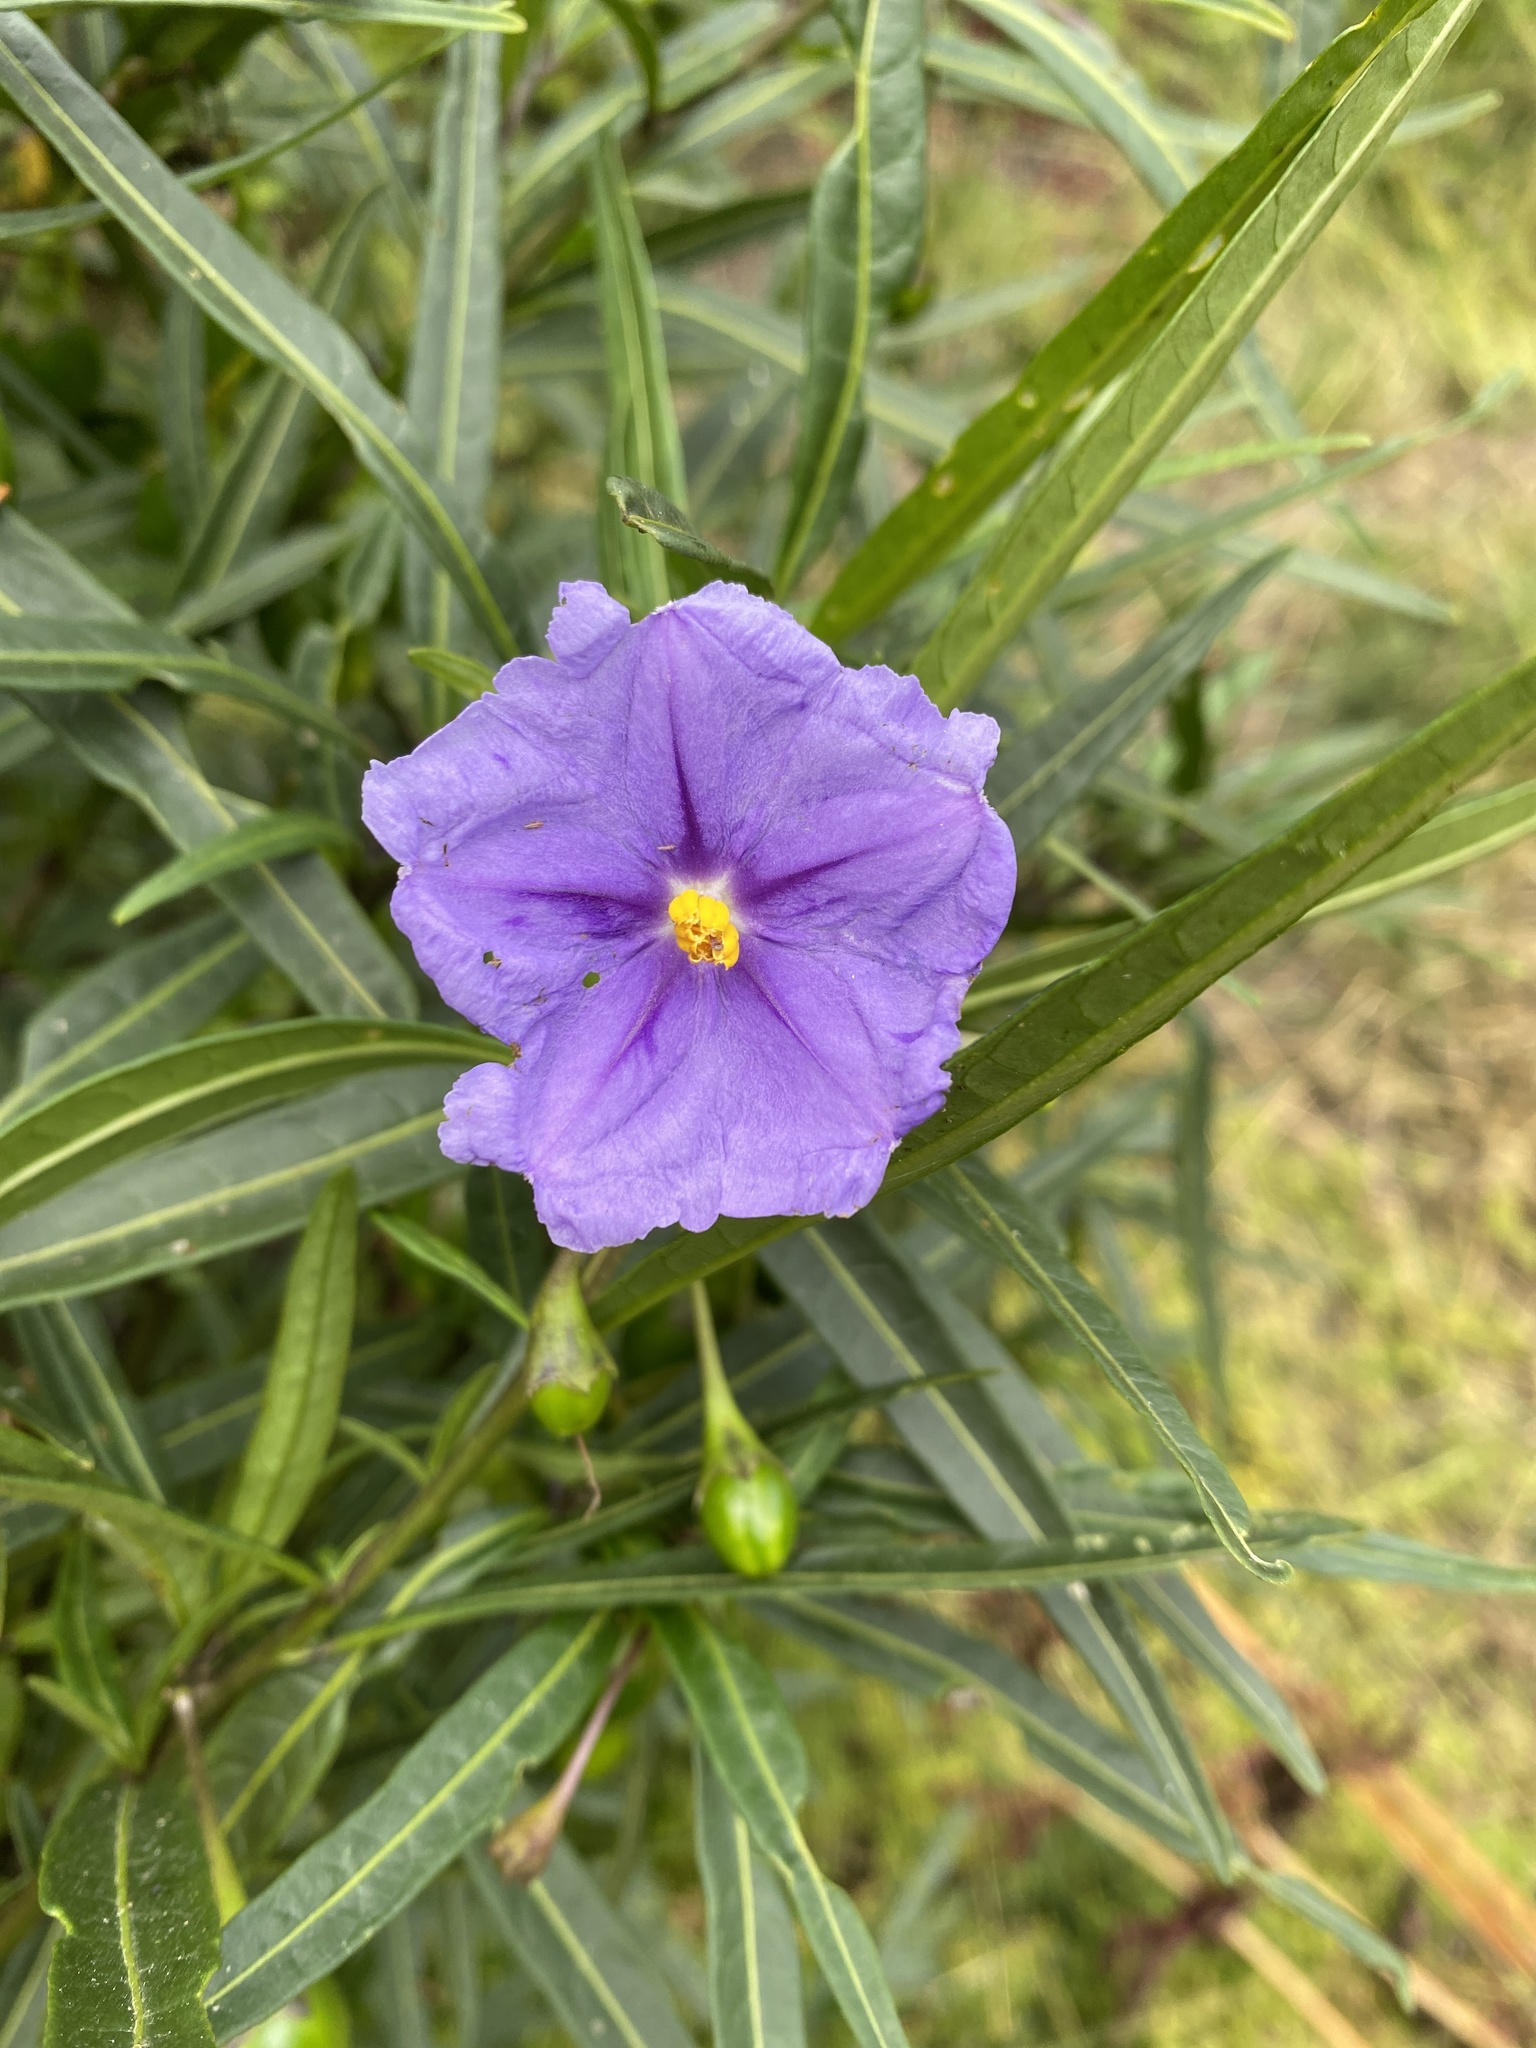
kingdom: Plantae
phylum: Tracheophyta
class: Magnoliopsida
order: Solanales
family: Solanaceae
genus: Solanum
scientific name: Solanum laciniatum
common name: Kangaroo-apple
